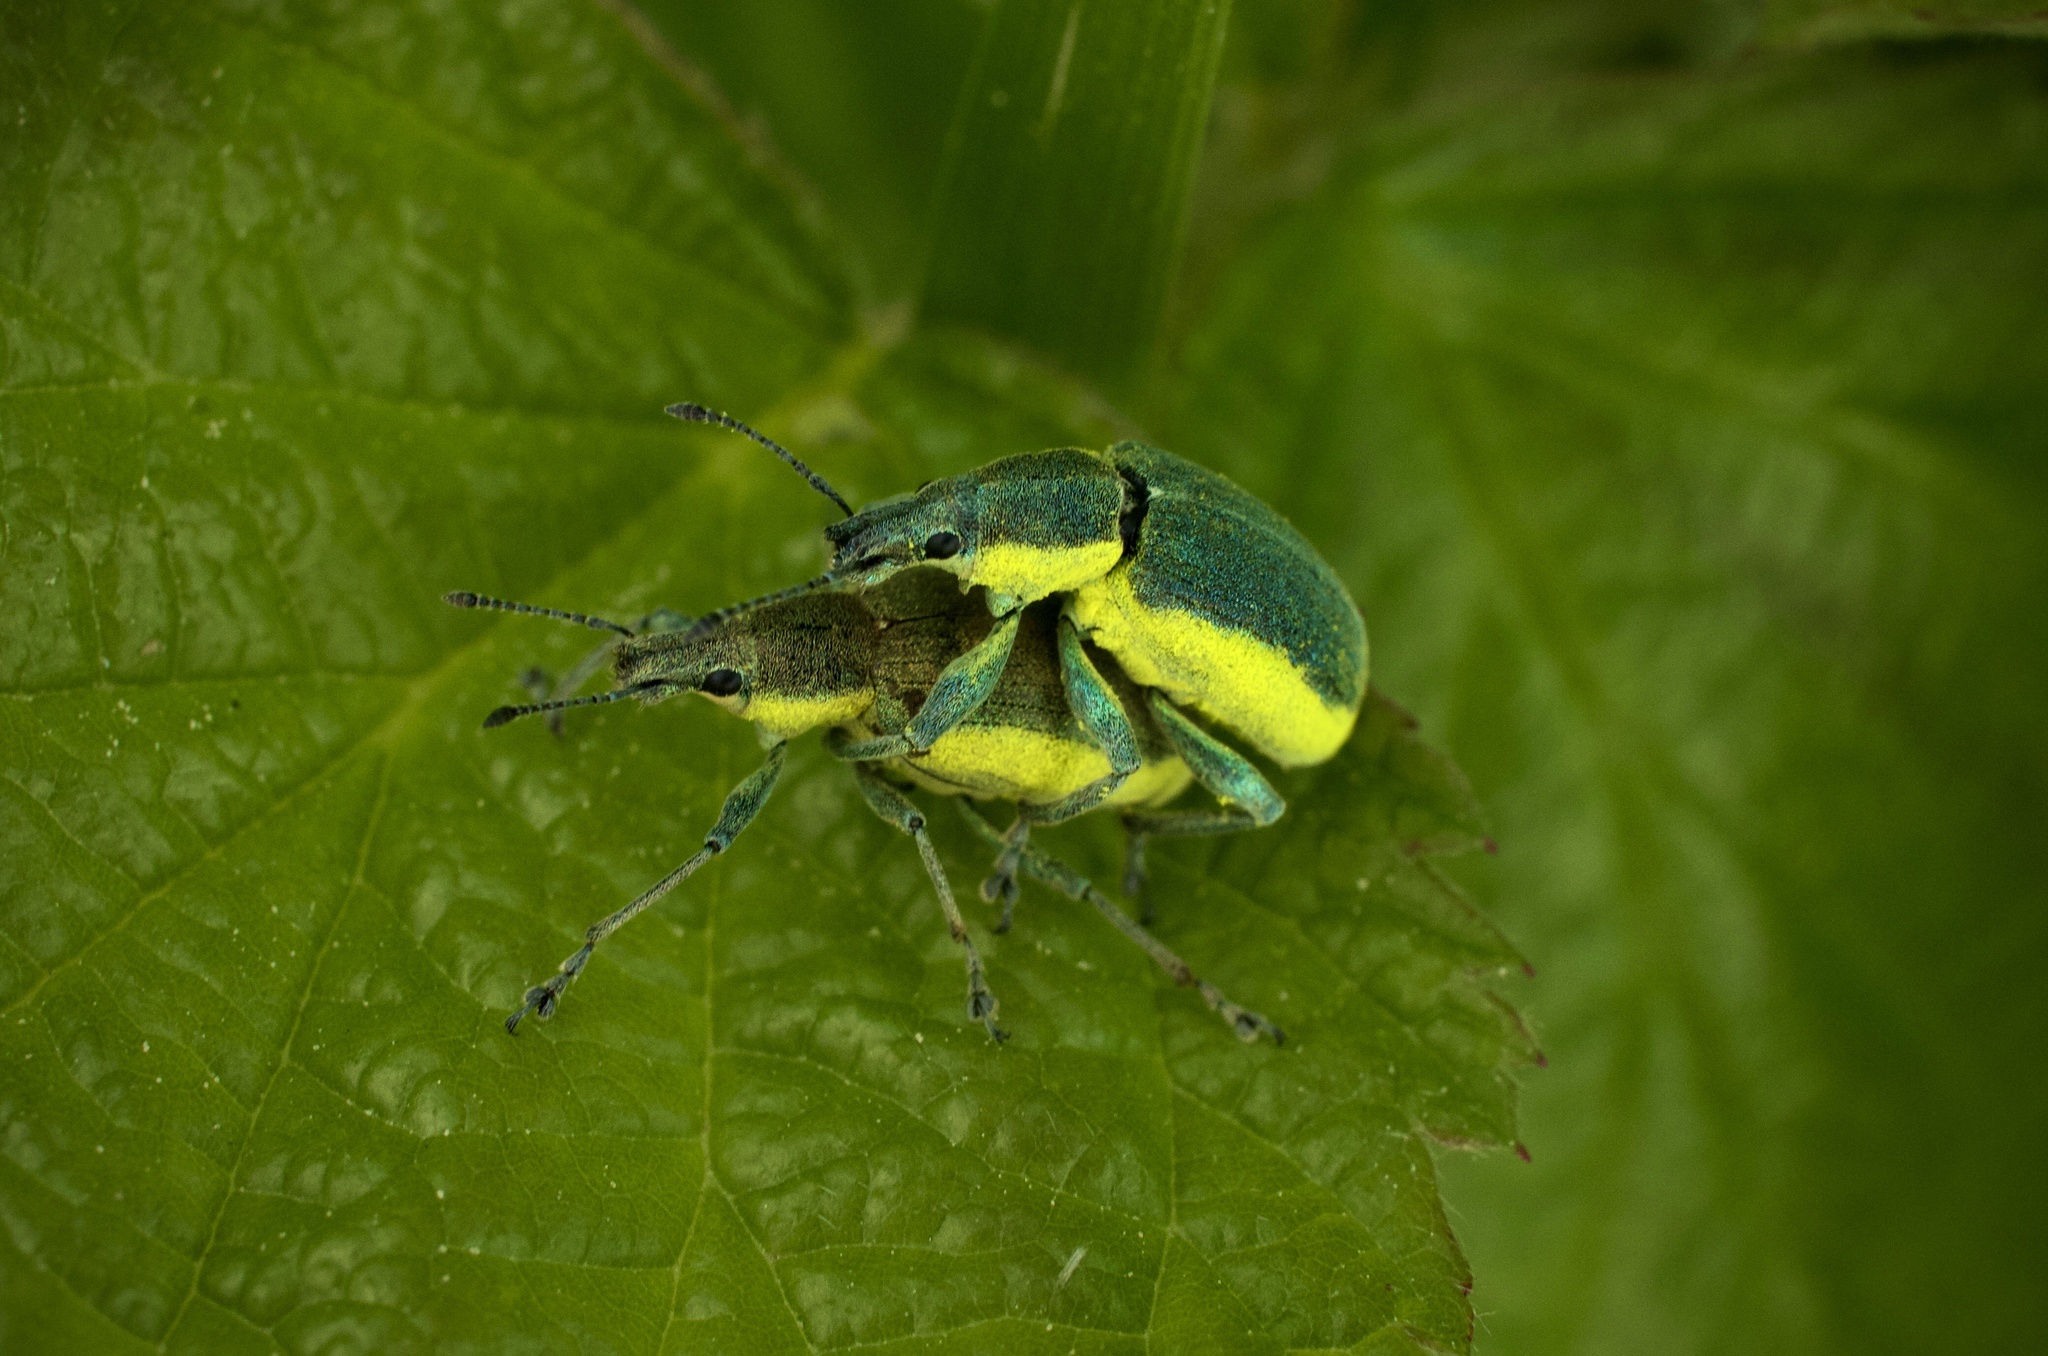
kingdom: Animalia
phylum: Arthropoda
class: Insecta
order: Coleoptera
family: Curculionidae
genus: Chlorophanus
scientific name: Chlorophanus viridis
